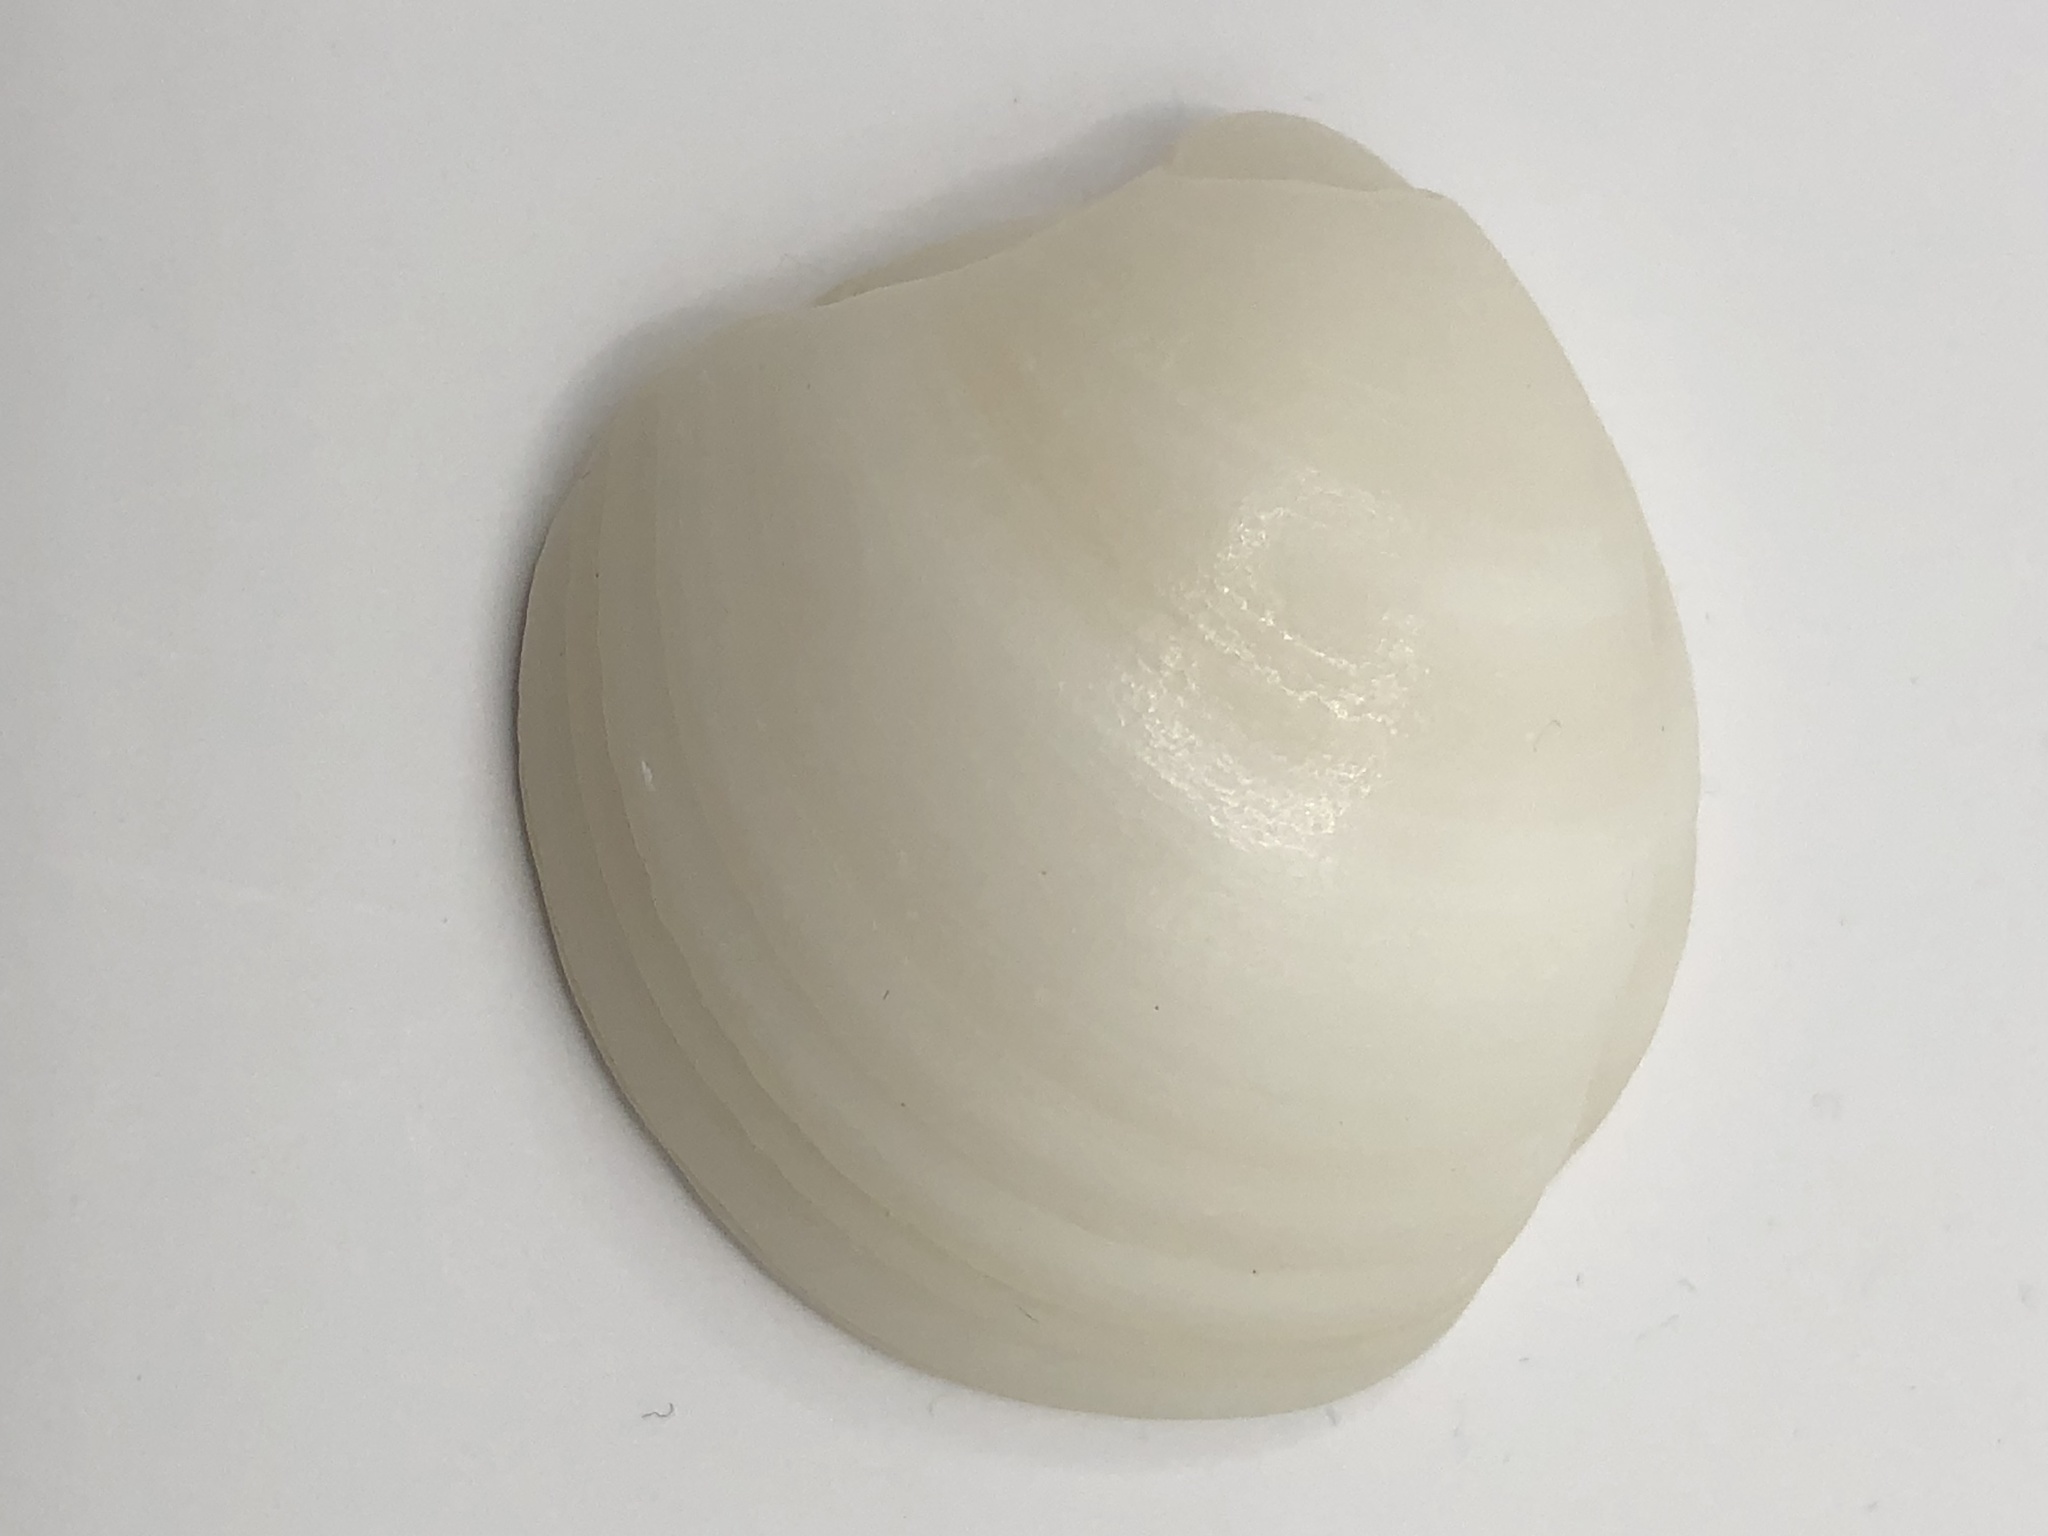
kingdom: Animalia
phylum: Mollusca
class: Bivalvia
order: Lucinida
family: Lucinidae
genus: Lucina
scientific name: Lucina pensylvanica
